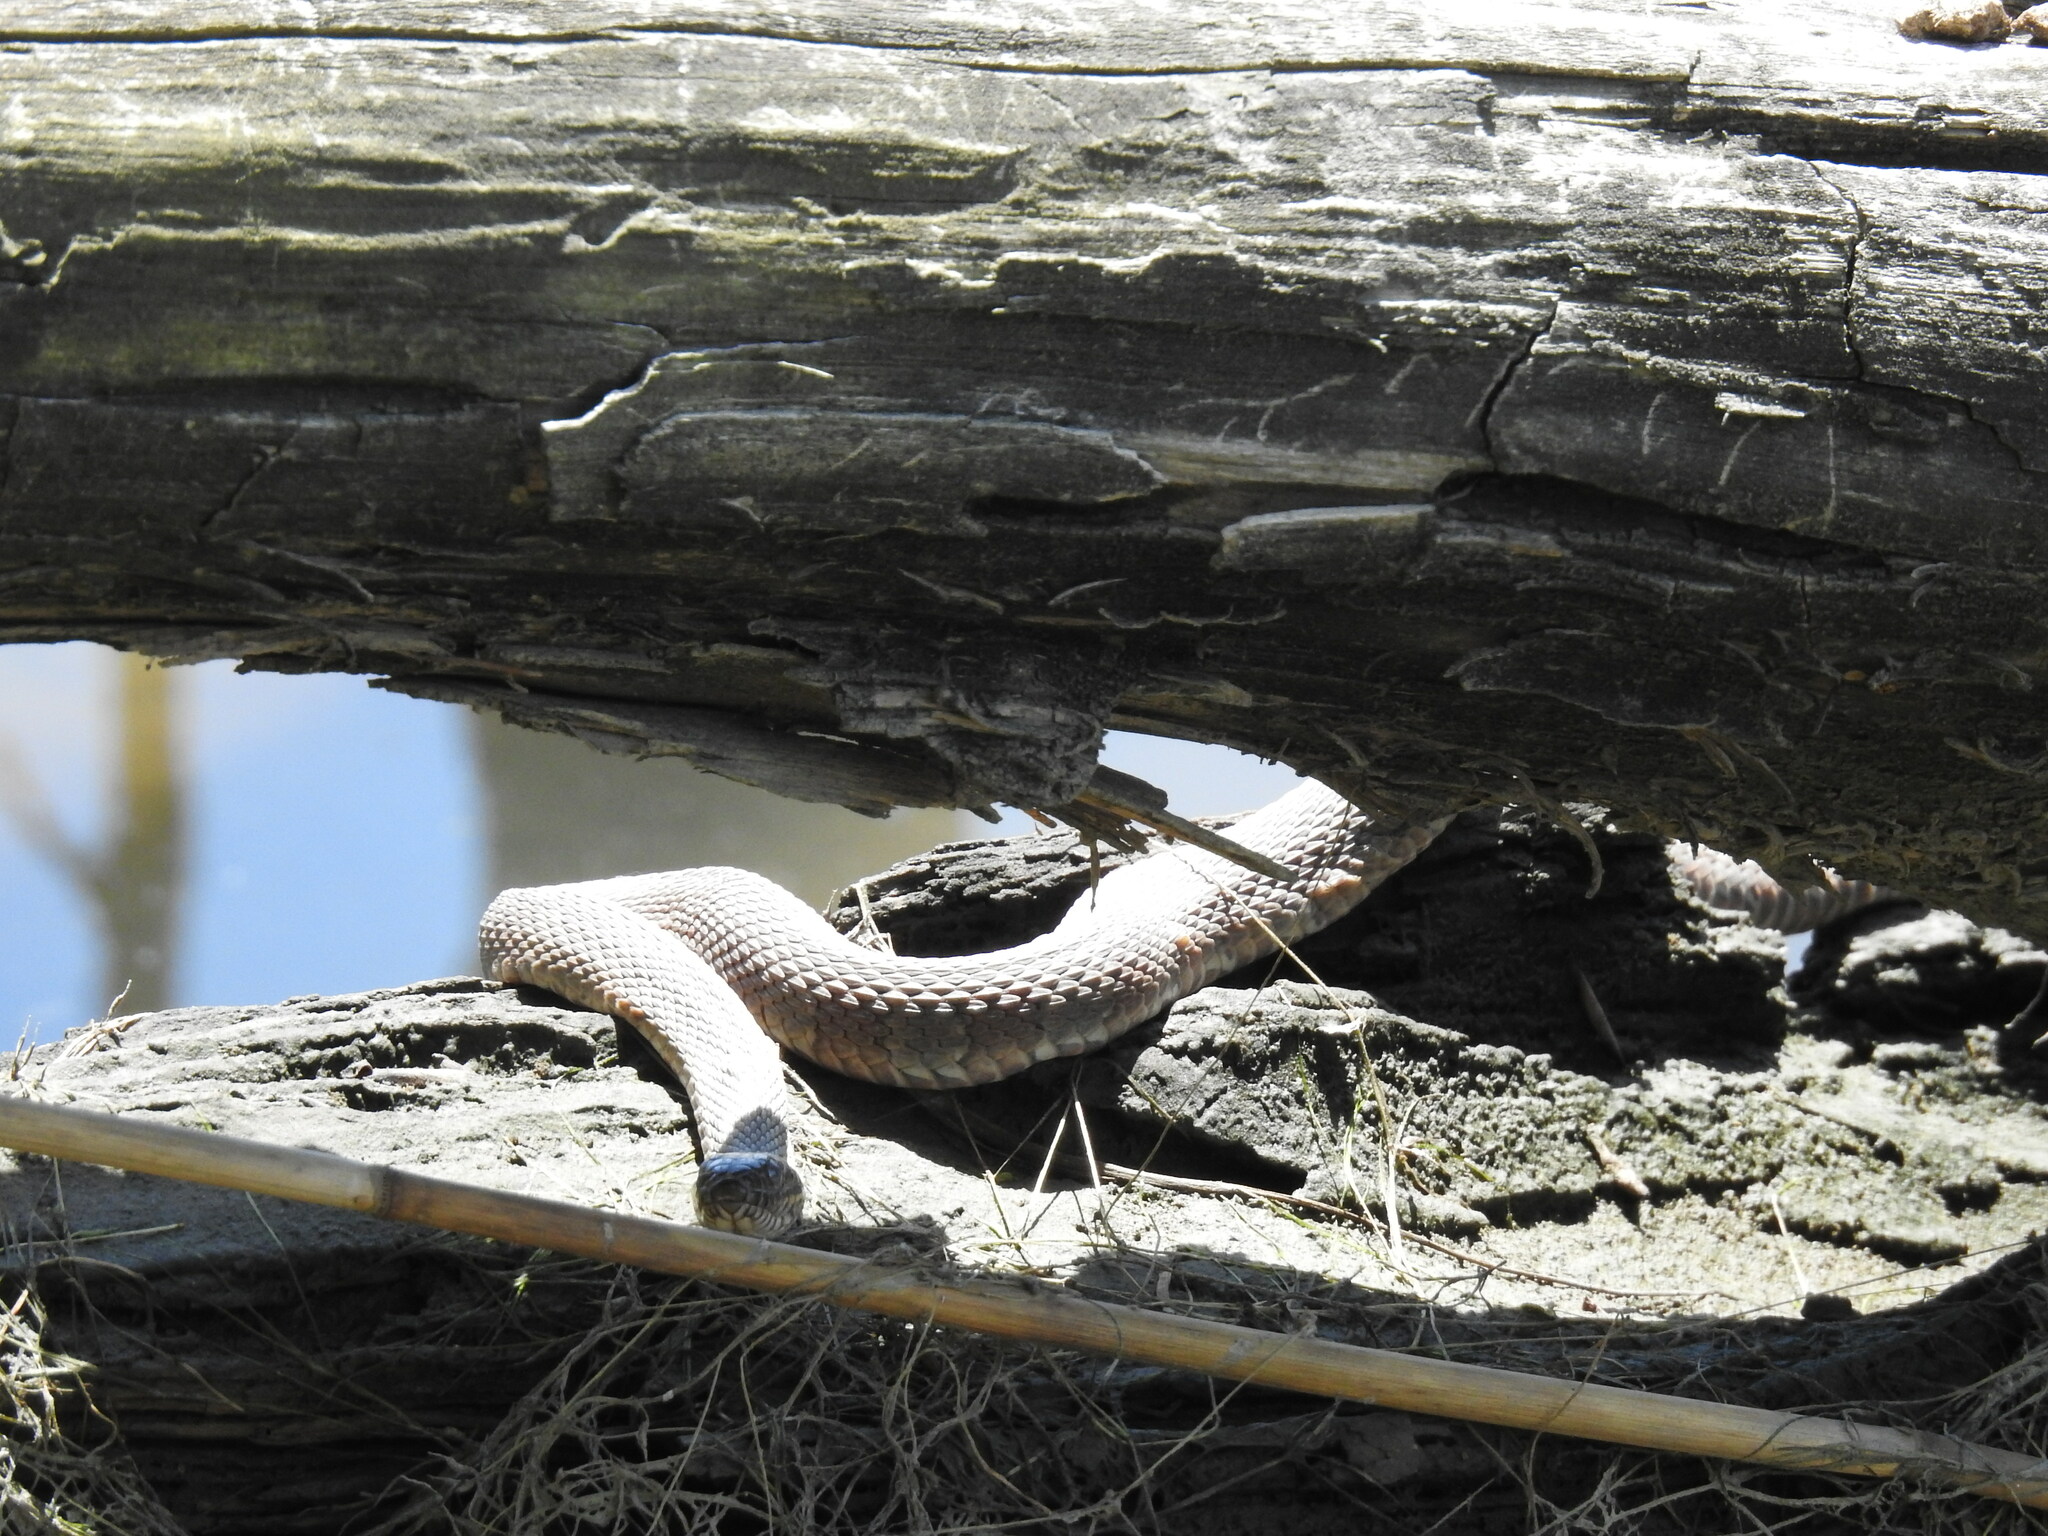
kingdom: Animalia
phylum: Chordata
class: Squamata
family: Colubridae
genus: Nerodia
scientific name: Nerodia sipedon
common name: Northern water snake
